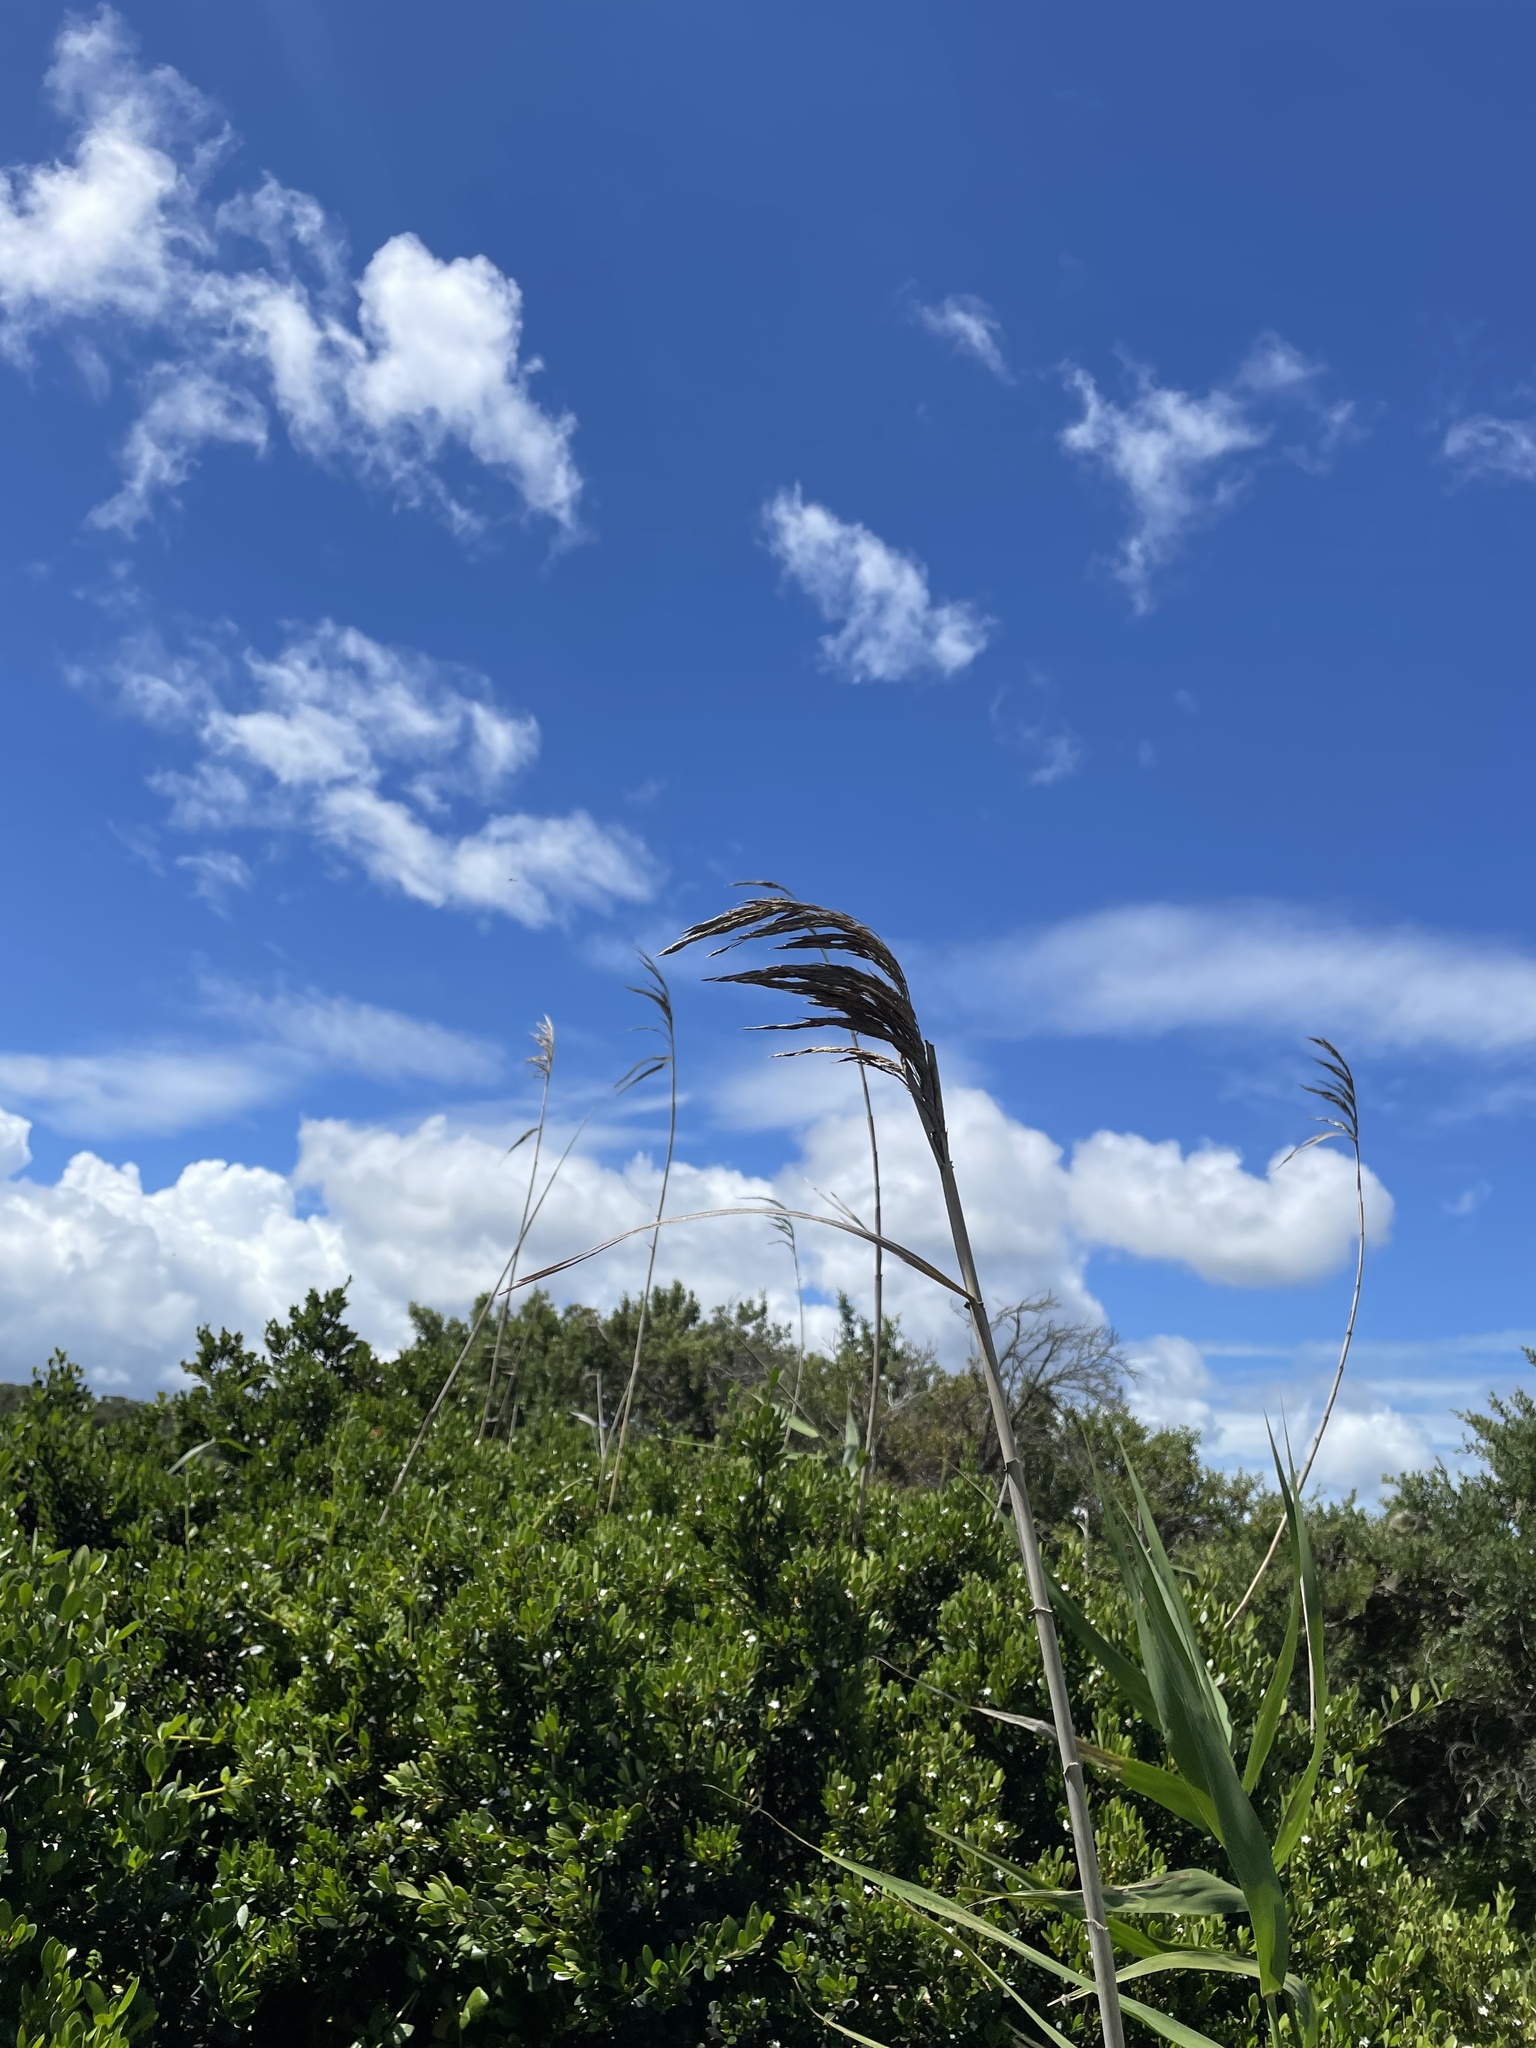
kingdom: Plantae
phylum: Tracheophyta
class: Liliopsida
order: Poales
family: Poaceae
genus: Phragmites
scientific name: Phragmites australis
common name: Common reed
